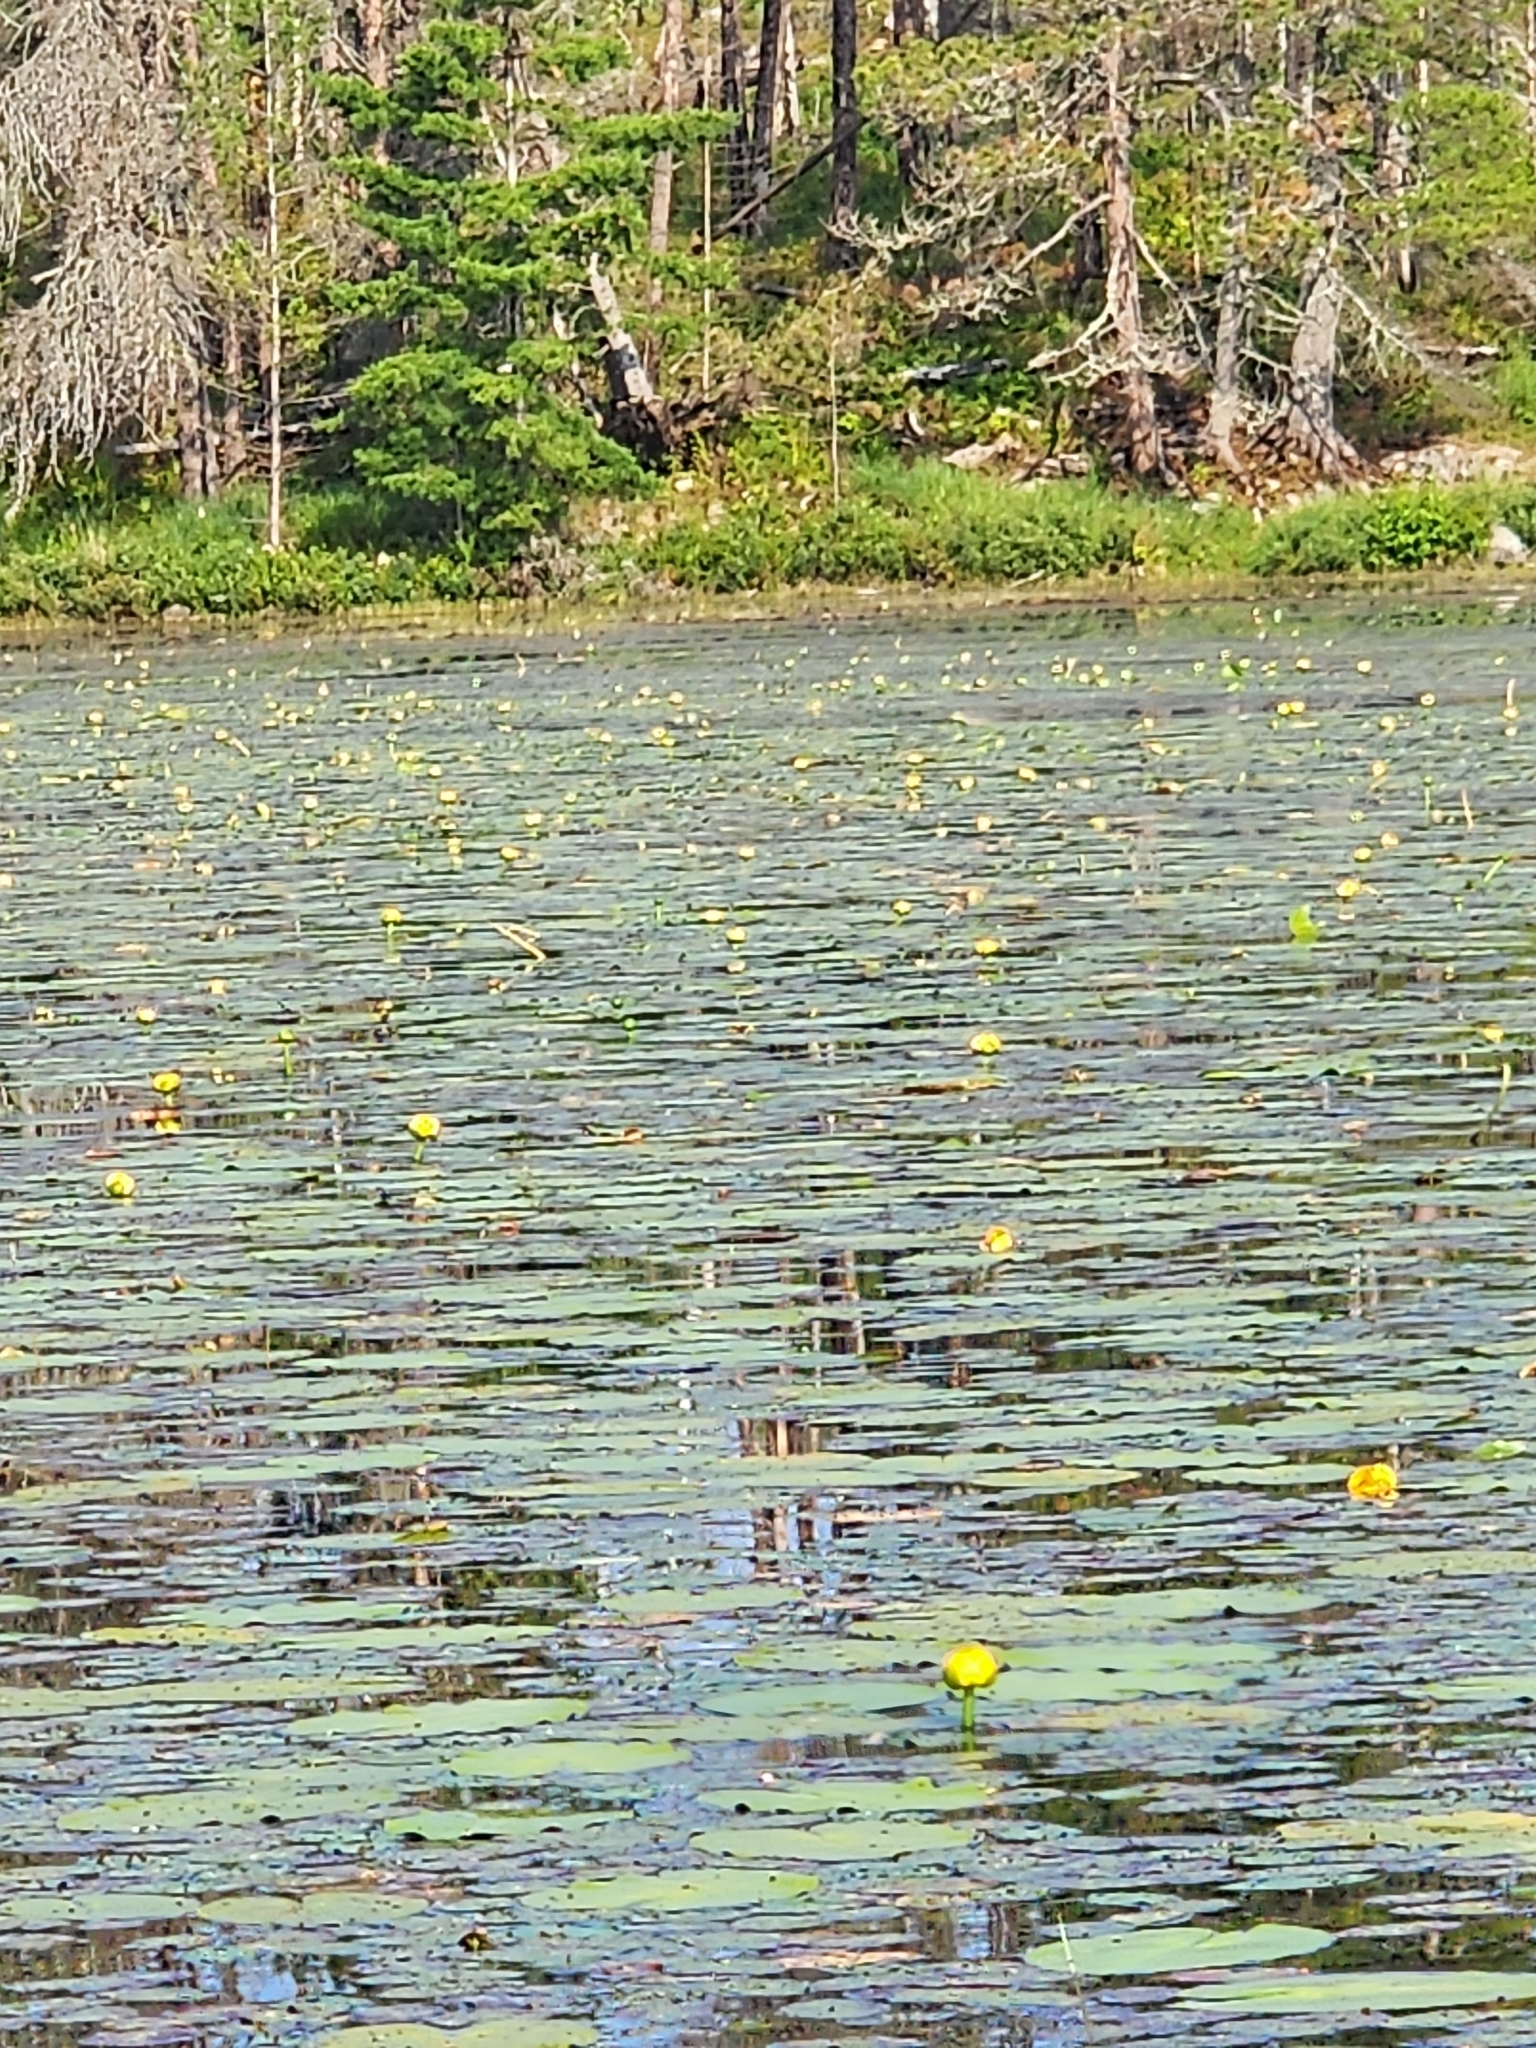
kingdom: Plantae
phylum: Tracheophyta
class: Magnoliopsida
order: Nymphaeales
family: Nymphaeaceae
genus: Nuphar
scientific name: Nuphar variegata
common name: Beaver-root
